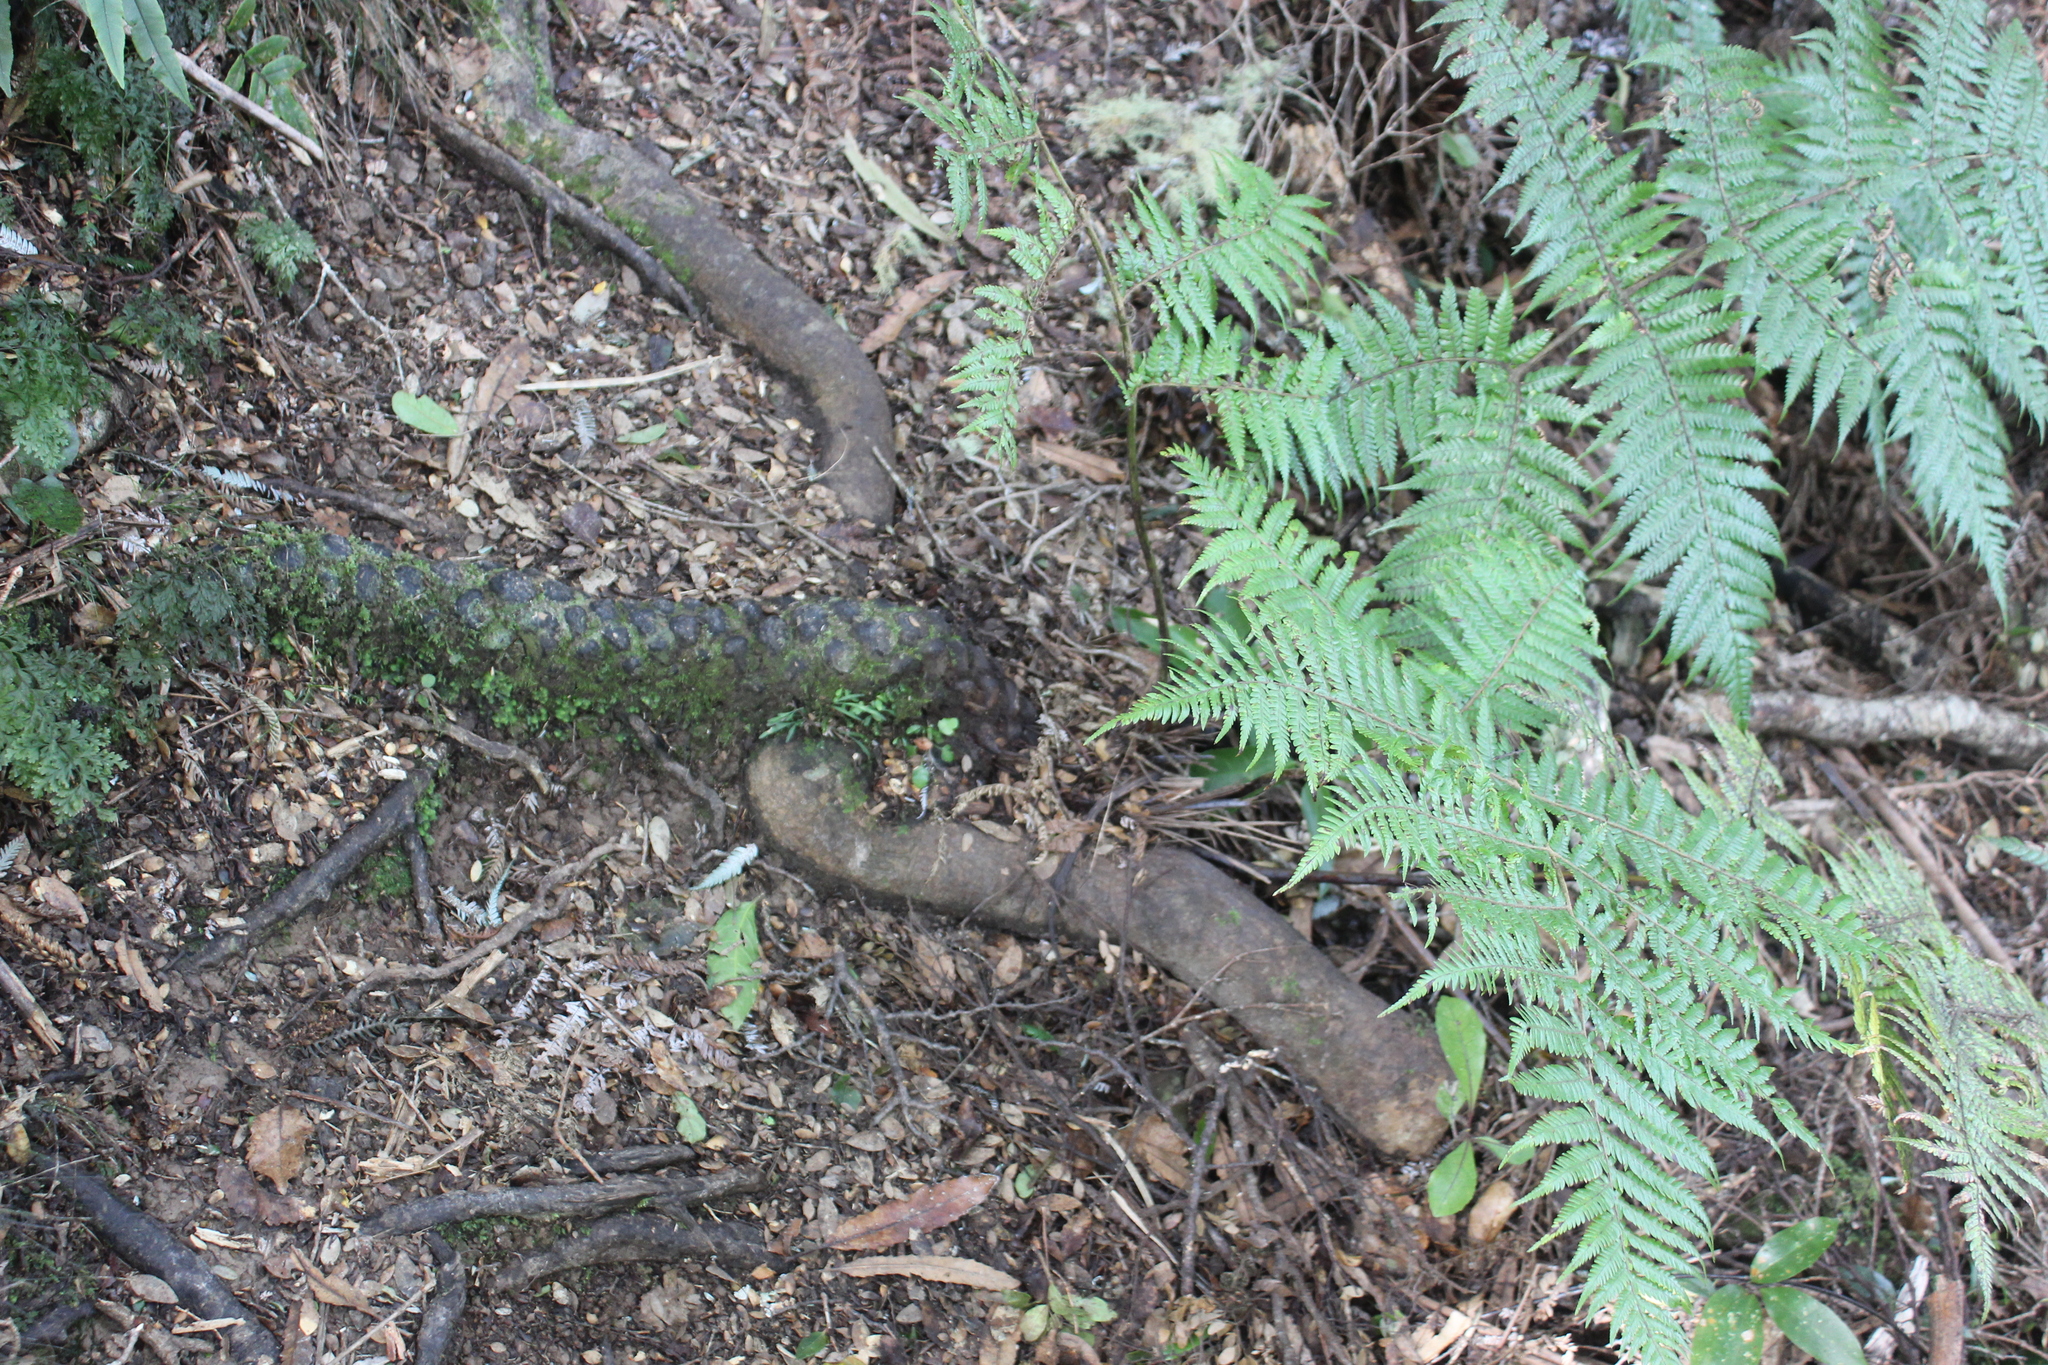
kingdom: Plantae
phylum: Tracheophyta
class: Polypodiopsida
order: Cyatheales
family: Cyatheaceae
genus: Alsophila
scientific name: Alsophila dealbata
